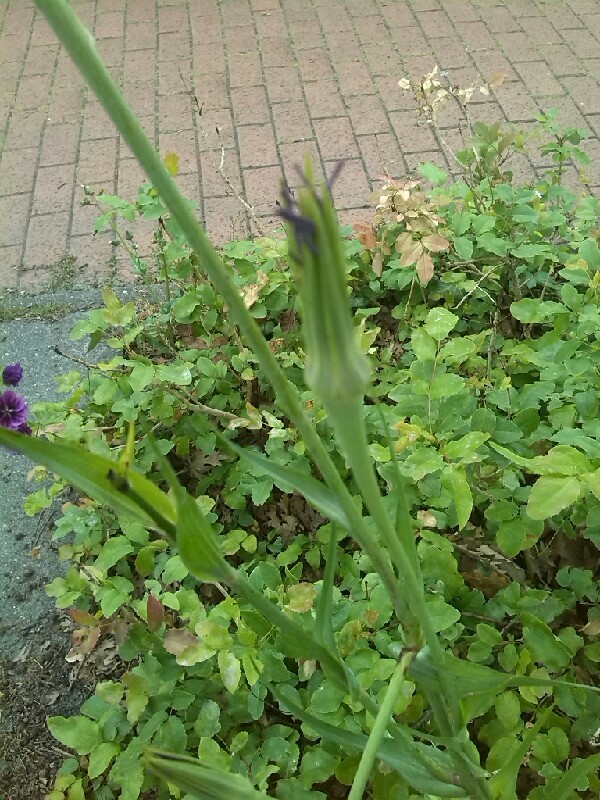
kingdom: Plantae
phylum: Tracheophyta
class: Magnoliopsida
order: Asterales
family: Asteraceae
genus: Tragopogon
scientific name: Tragopogon porrifolius
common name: Salsify
